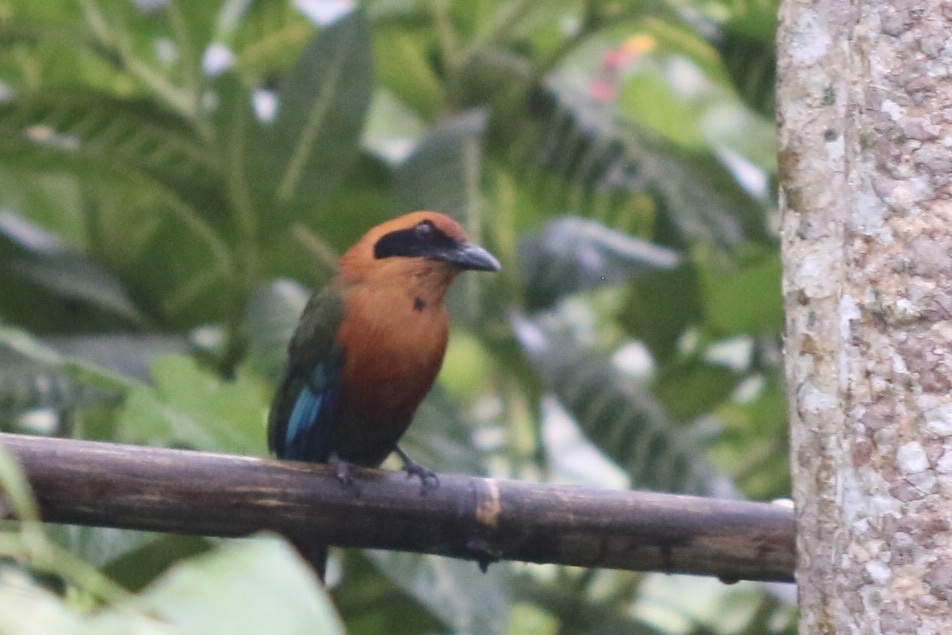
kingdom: Animalia
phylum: Chordata
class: Aves
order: Coraciiformes
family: Momotidae
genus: Baryphthengus
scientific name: Baryphthengus martii
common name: Rufous motmot
